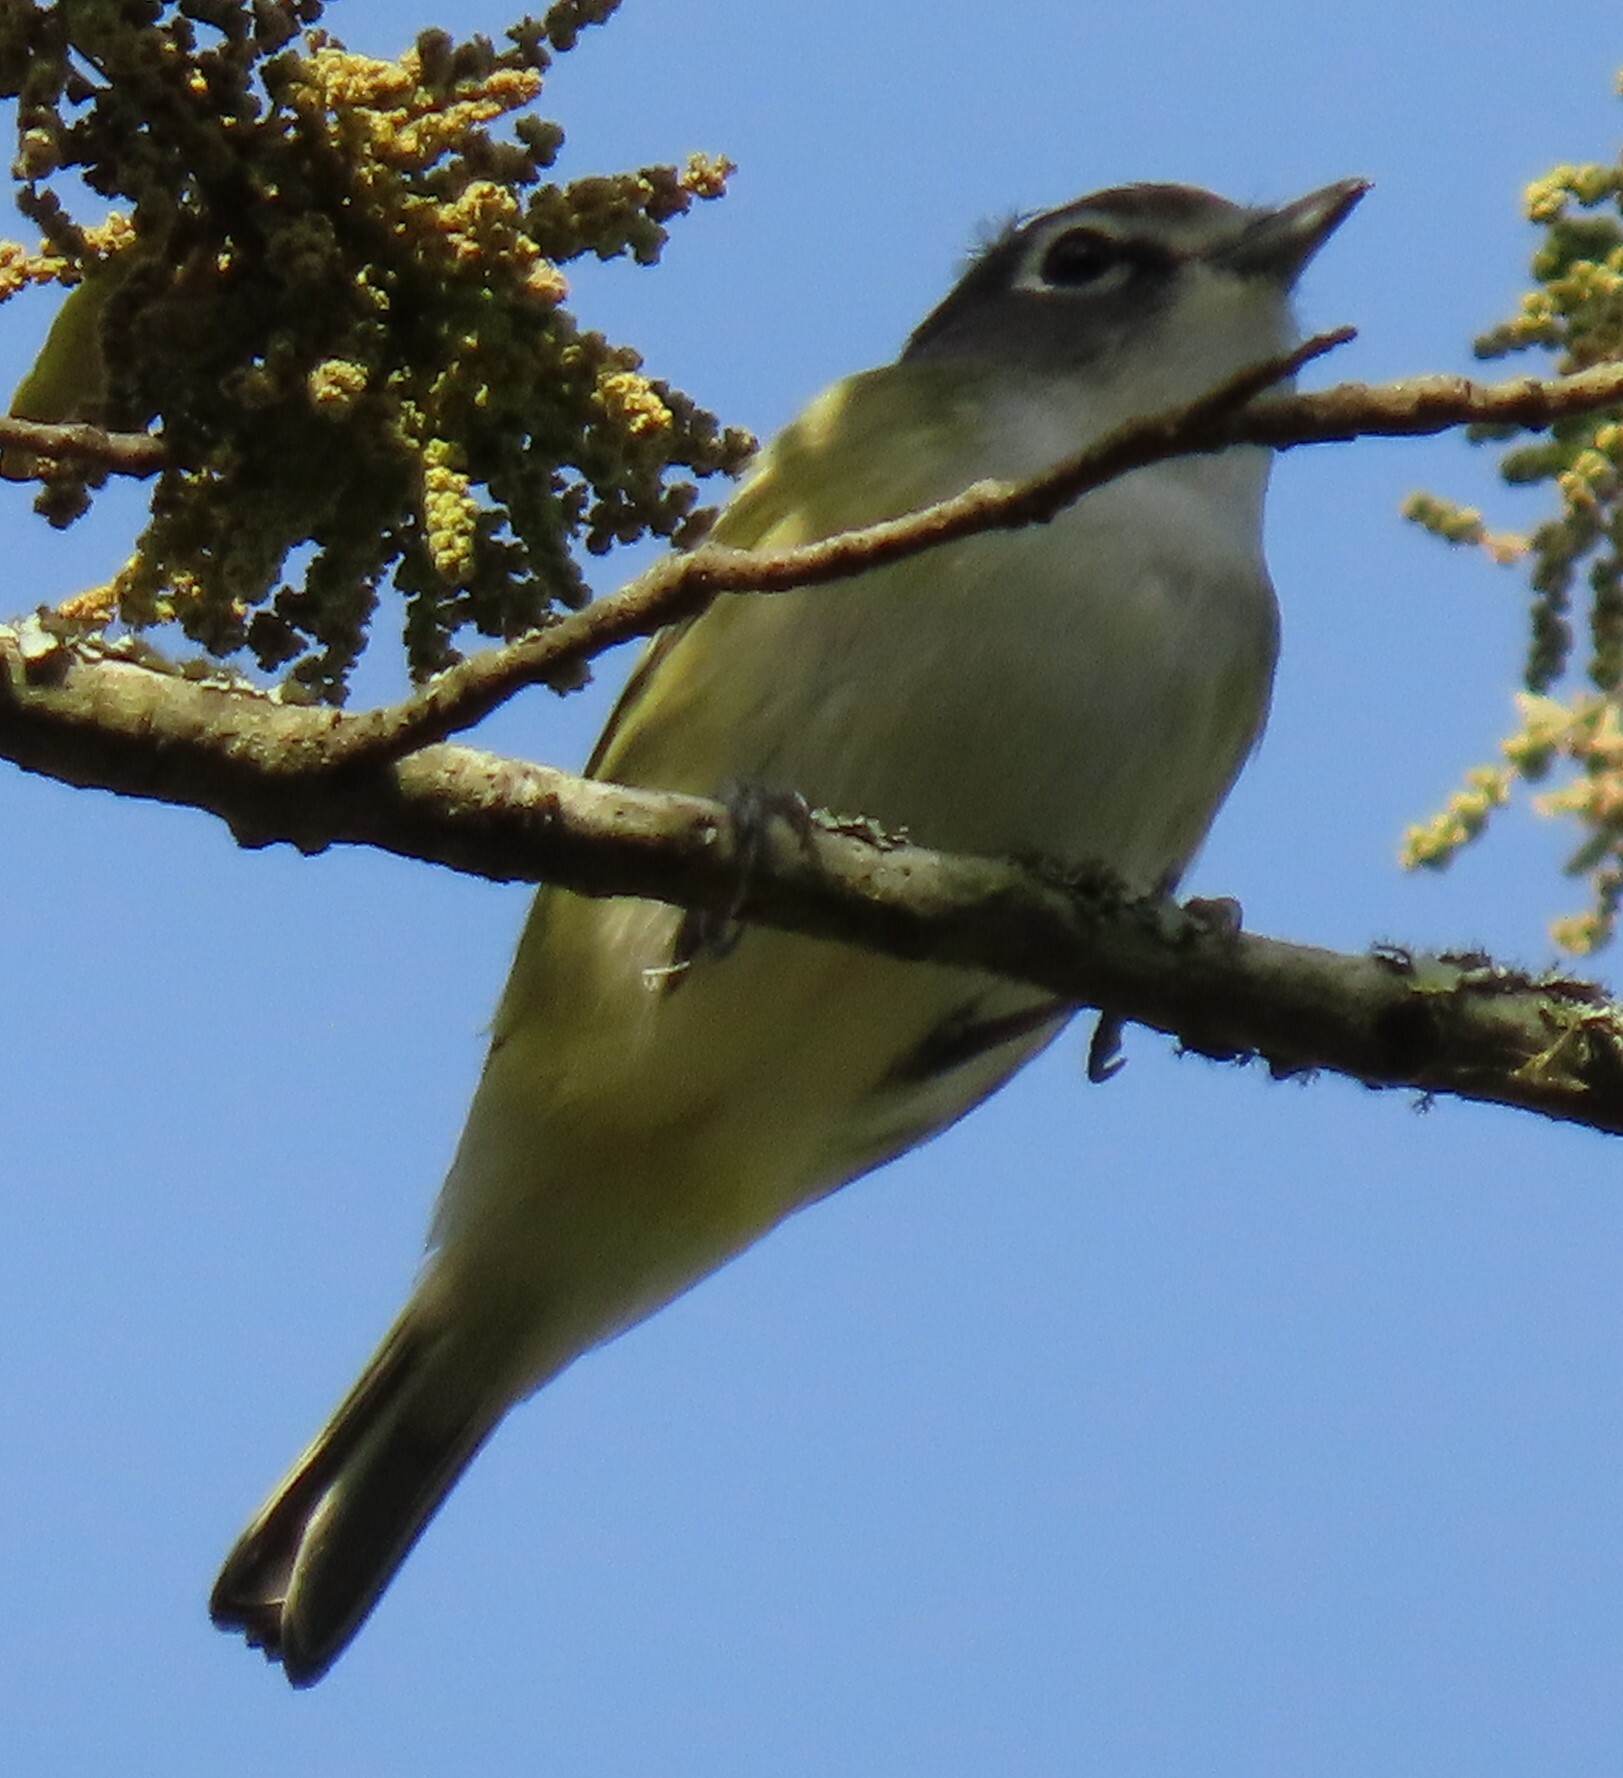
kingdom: Animalia
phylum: Chordata
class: Aves
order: Passeriformes
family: Vireonidae
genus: Vireo
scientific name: Vireo solitarius
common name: Blue-headed vireo
